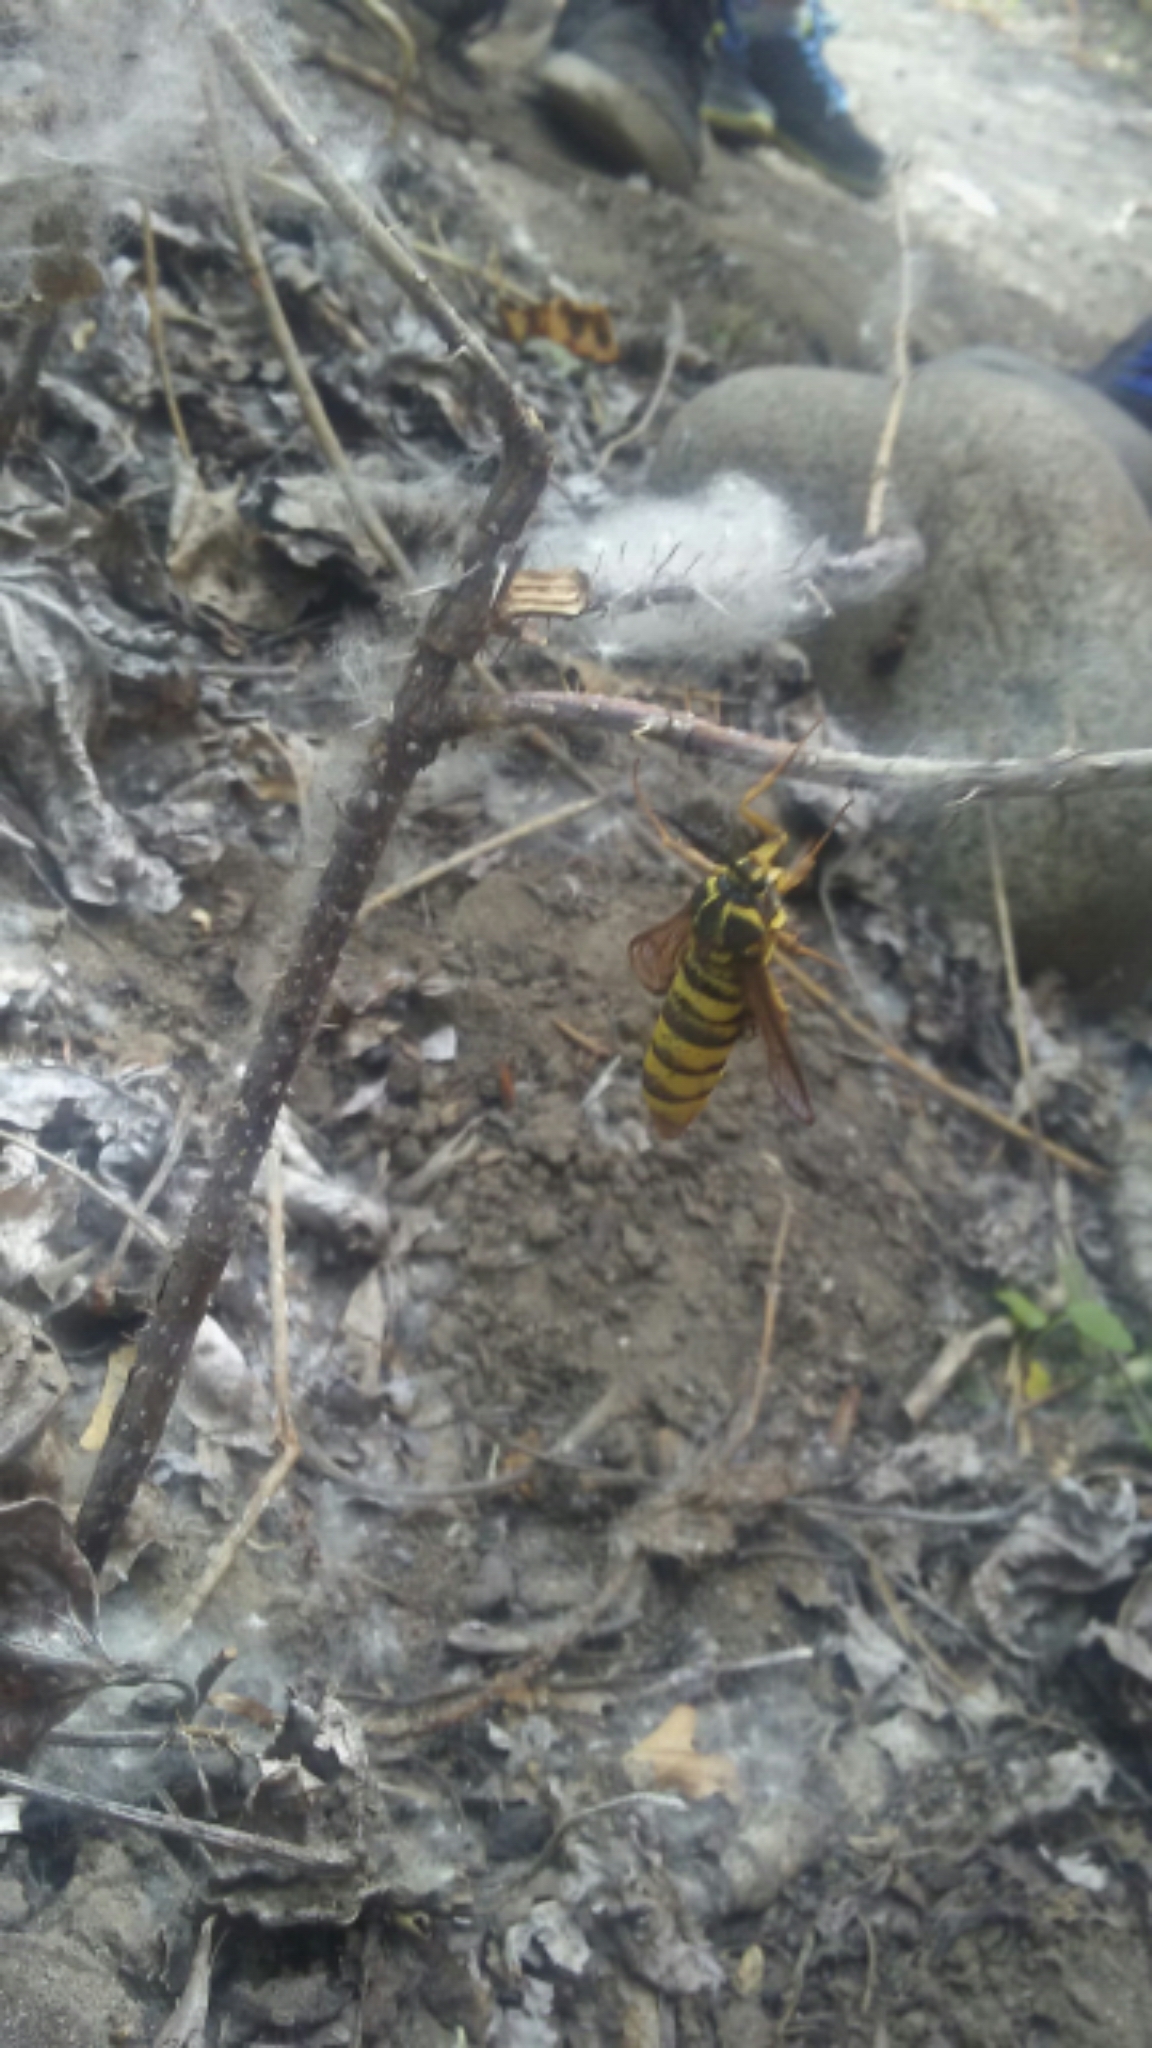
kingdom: Animalia
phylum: Arthropoda
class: Insecta
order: Lepidoptera
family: Sesiidae
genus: Sesia
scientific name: Sesia tibiale
